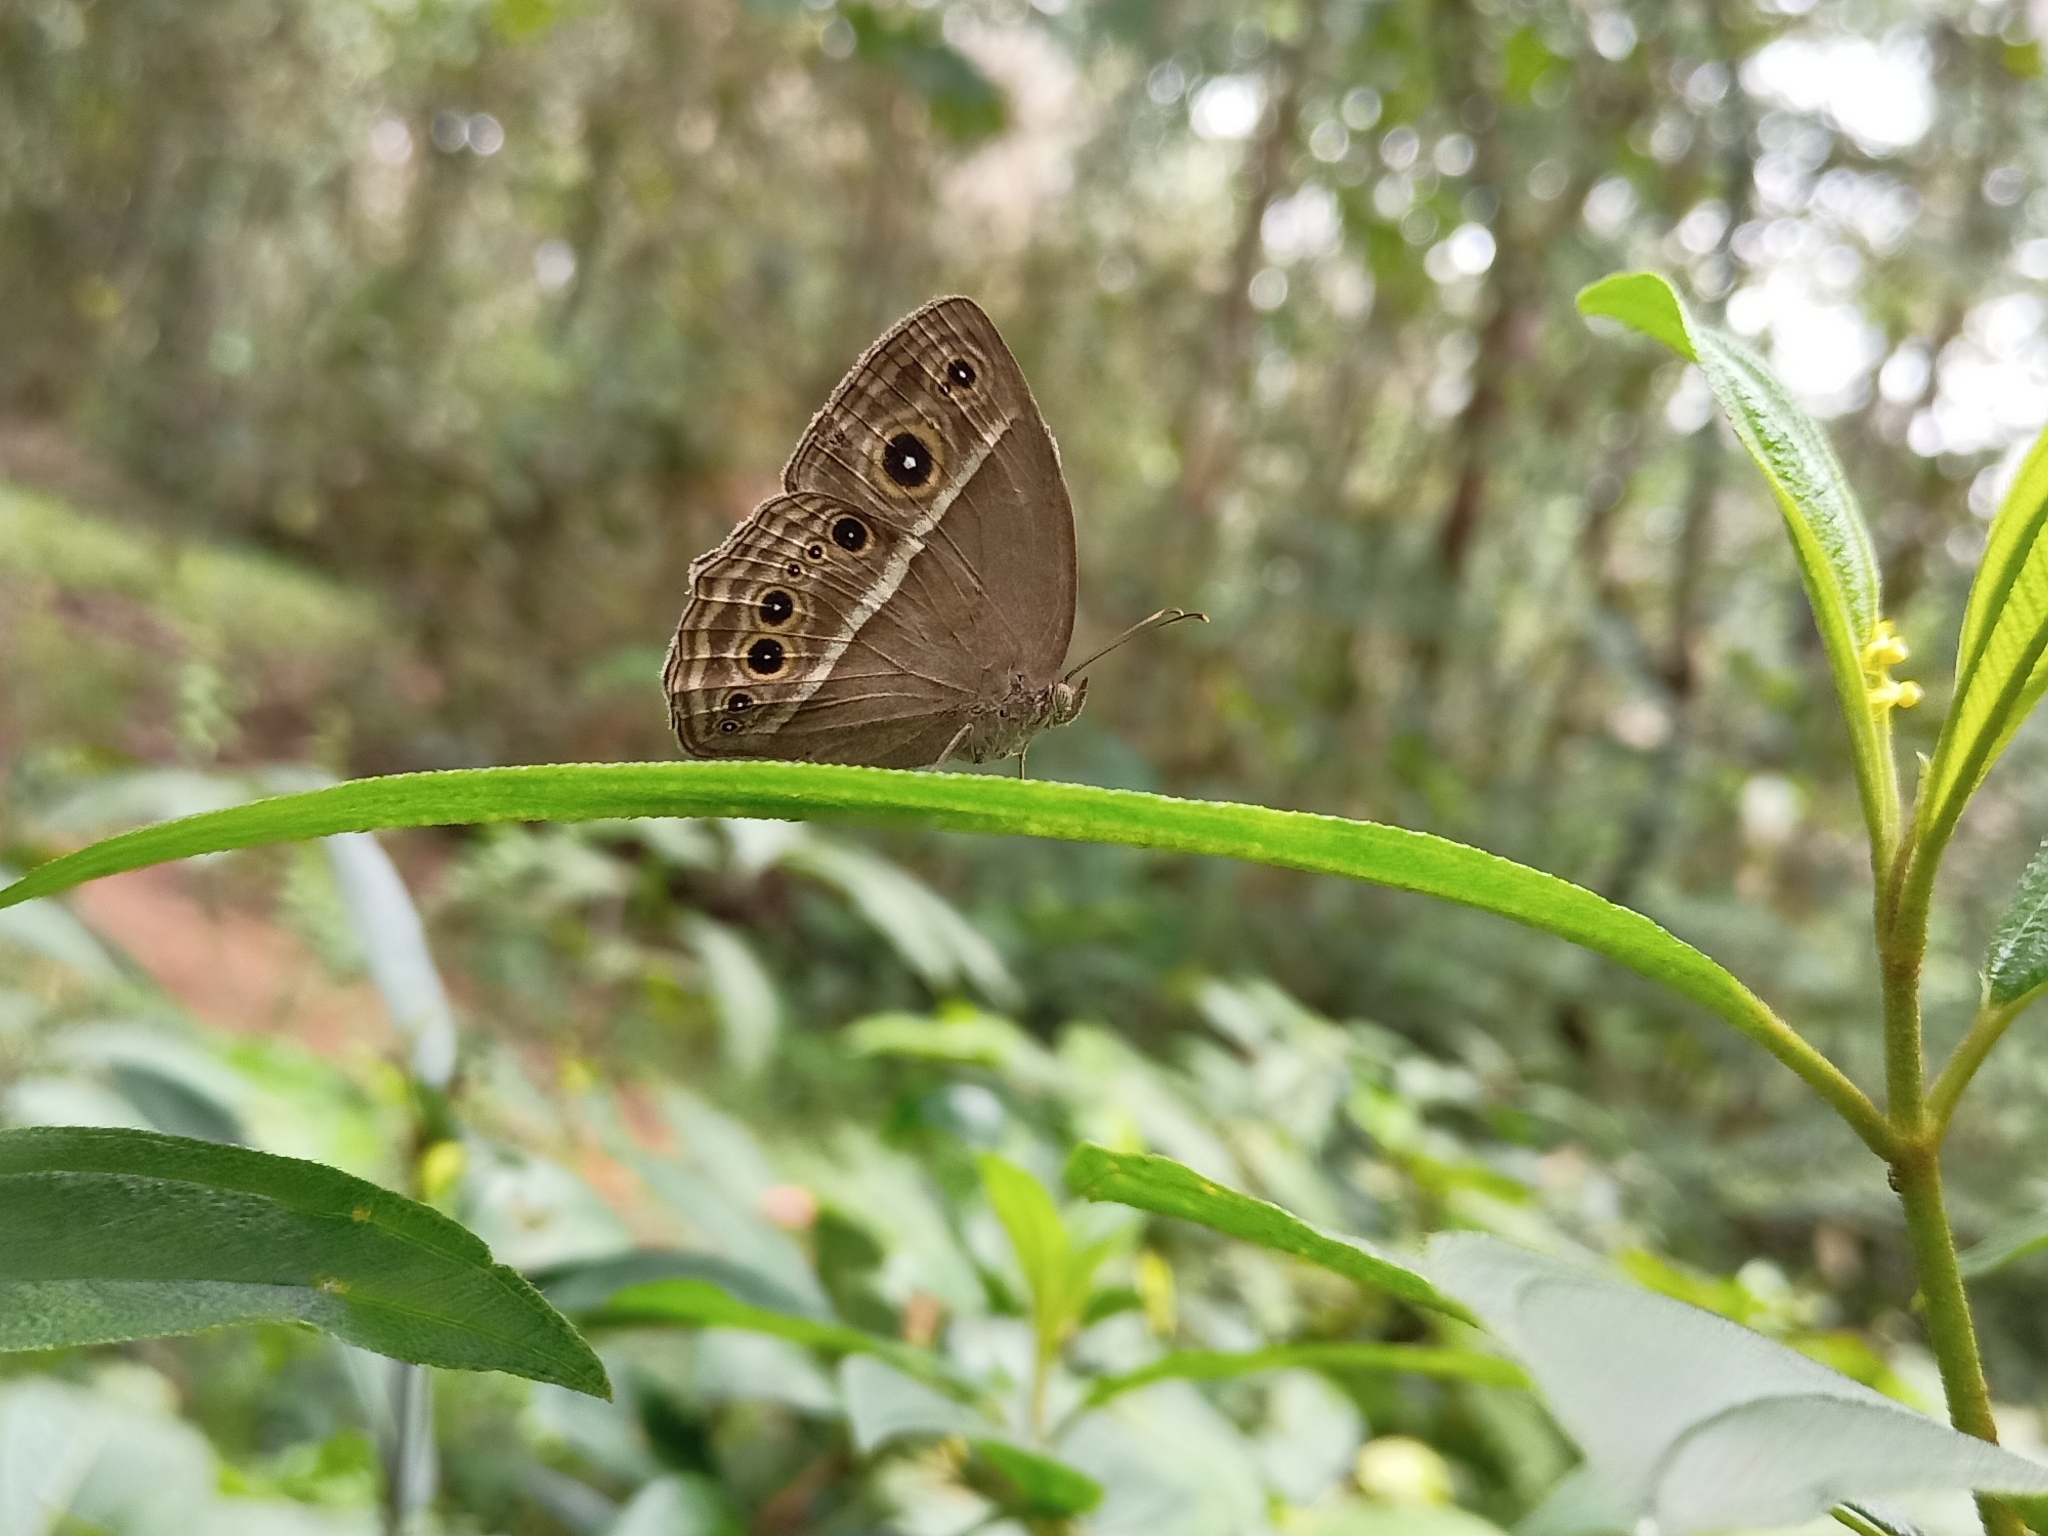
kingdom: Animalia
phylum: Arthropoda
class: Insecta
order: Lepidoptera
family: Nymphalidae
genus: Mycalesis
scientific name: Mycalesis visala
